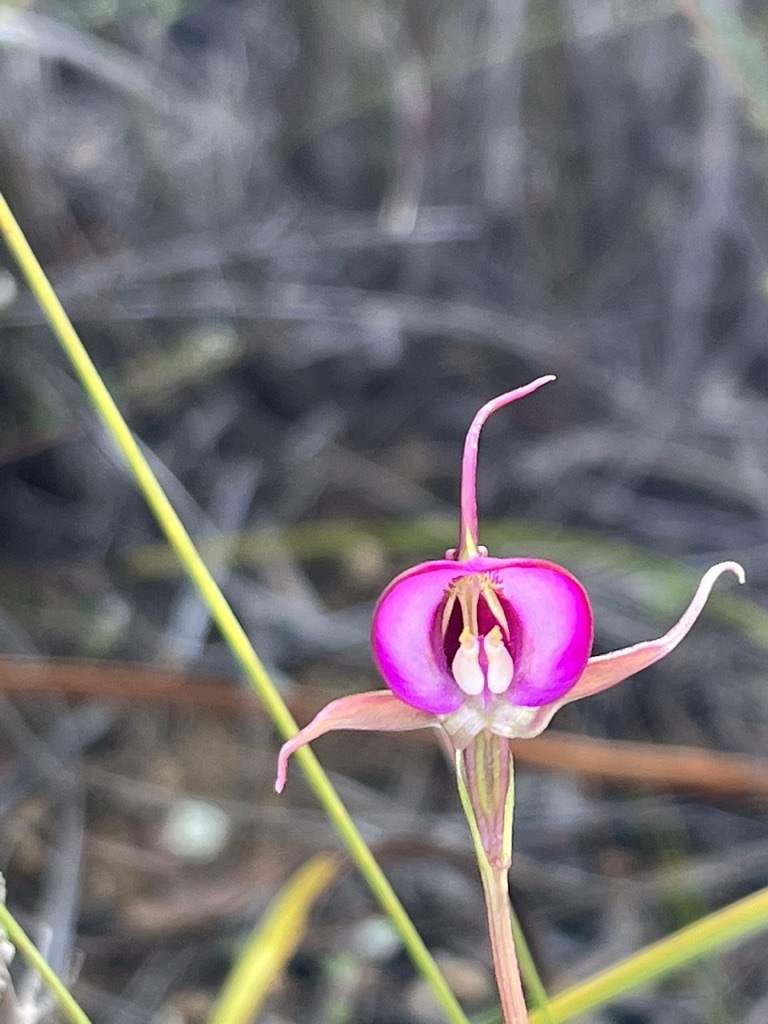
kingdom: Plantae
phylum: Tracheophyta
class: Liliopsida
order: Asparagales
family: Orchidaceae
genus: Disperis
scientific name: Disperis capensis
